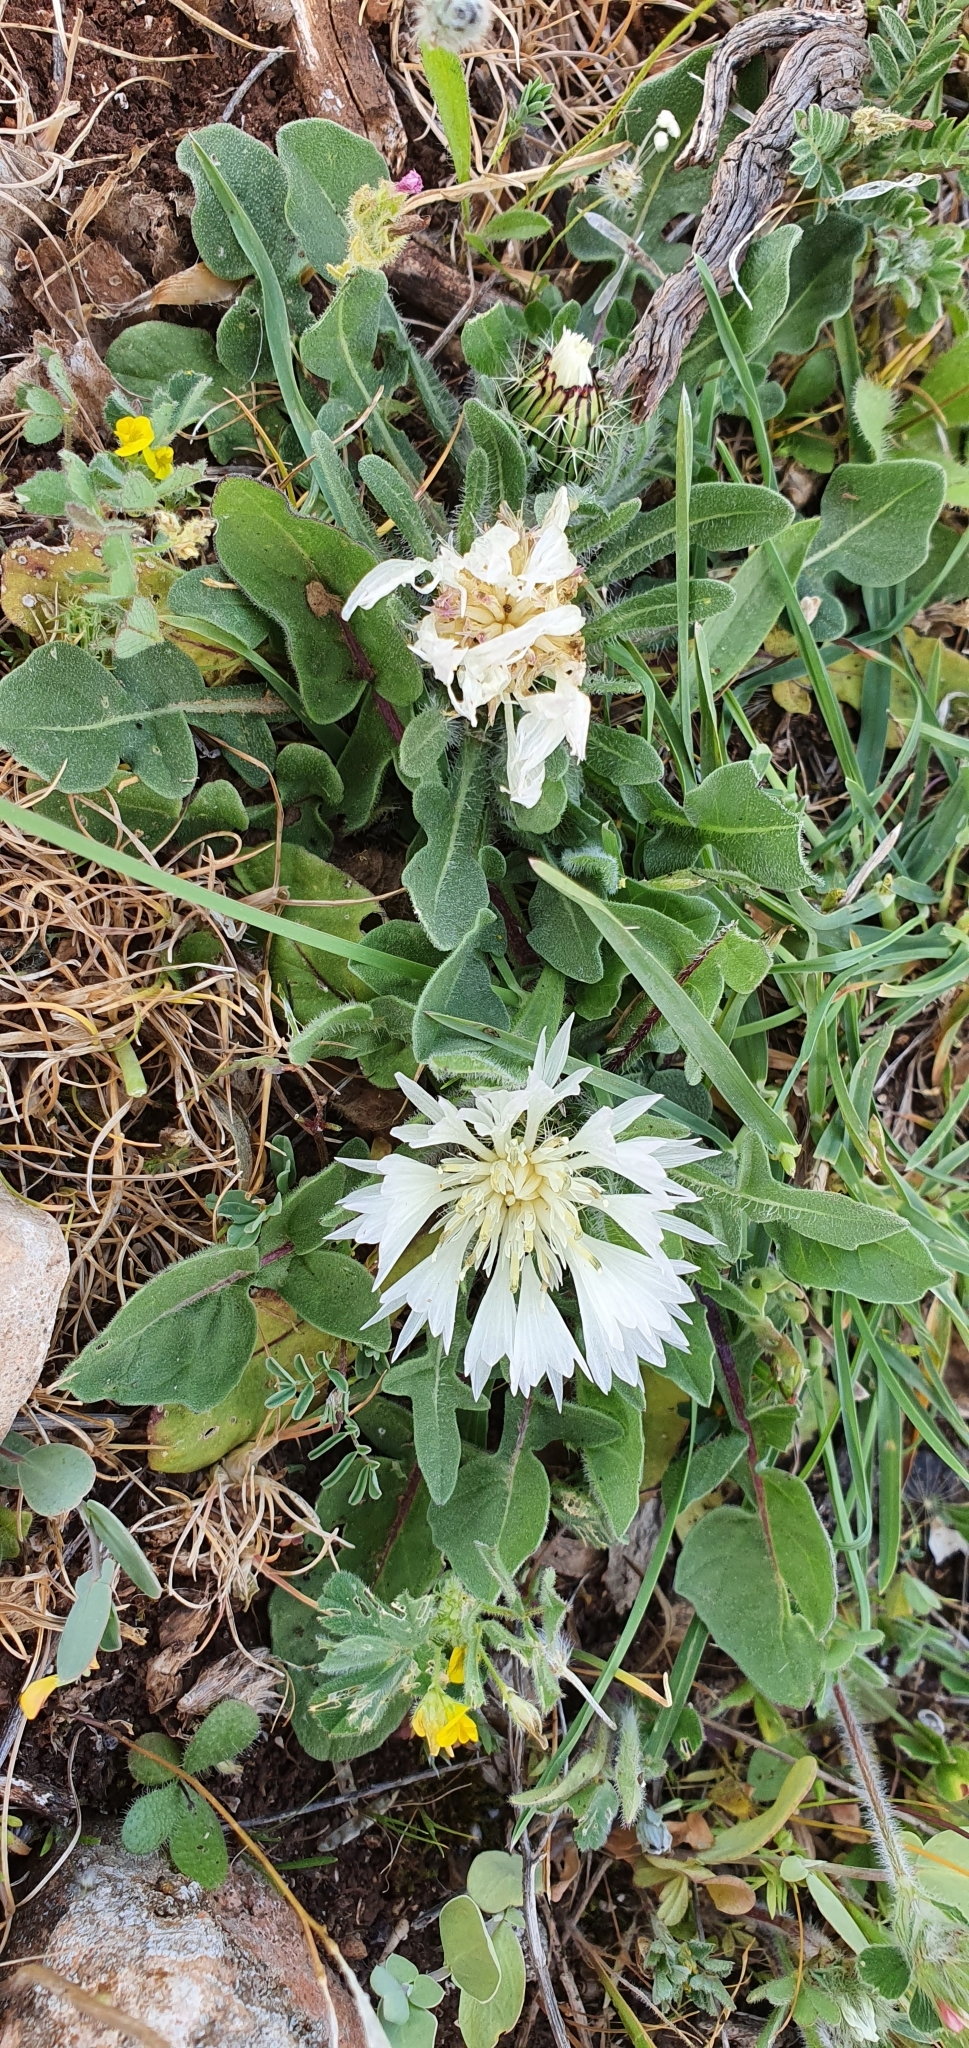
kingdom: Plantae
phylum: Tracheophyta
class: Magnoliopsida
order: Asterales
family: Asteraceae
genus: Centaurea
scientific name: Centaurea pullata
